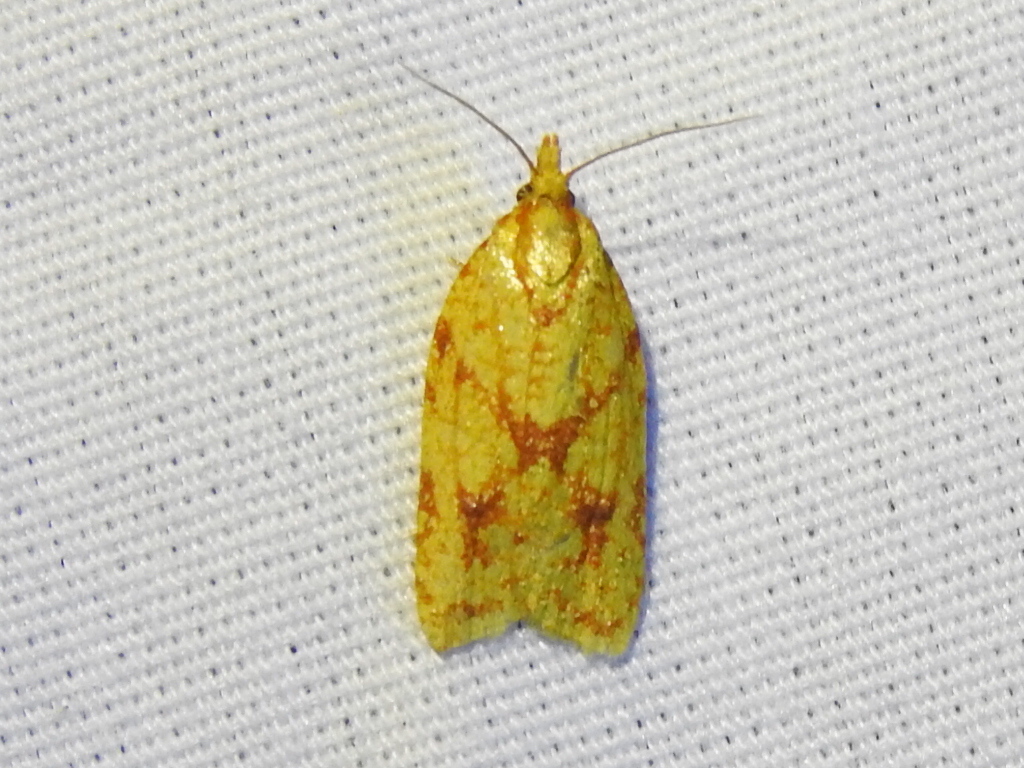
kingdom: Animalia
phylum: Arthropoda
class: Insecta
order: Lepidoptera
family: Tortricidae
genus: Sparganothis
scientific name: Sparganothis sulfureana
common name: Sparganothis fruitworm moth
